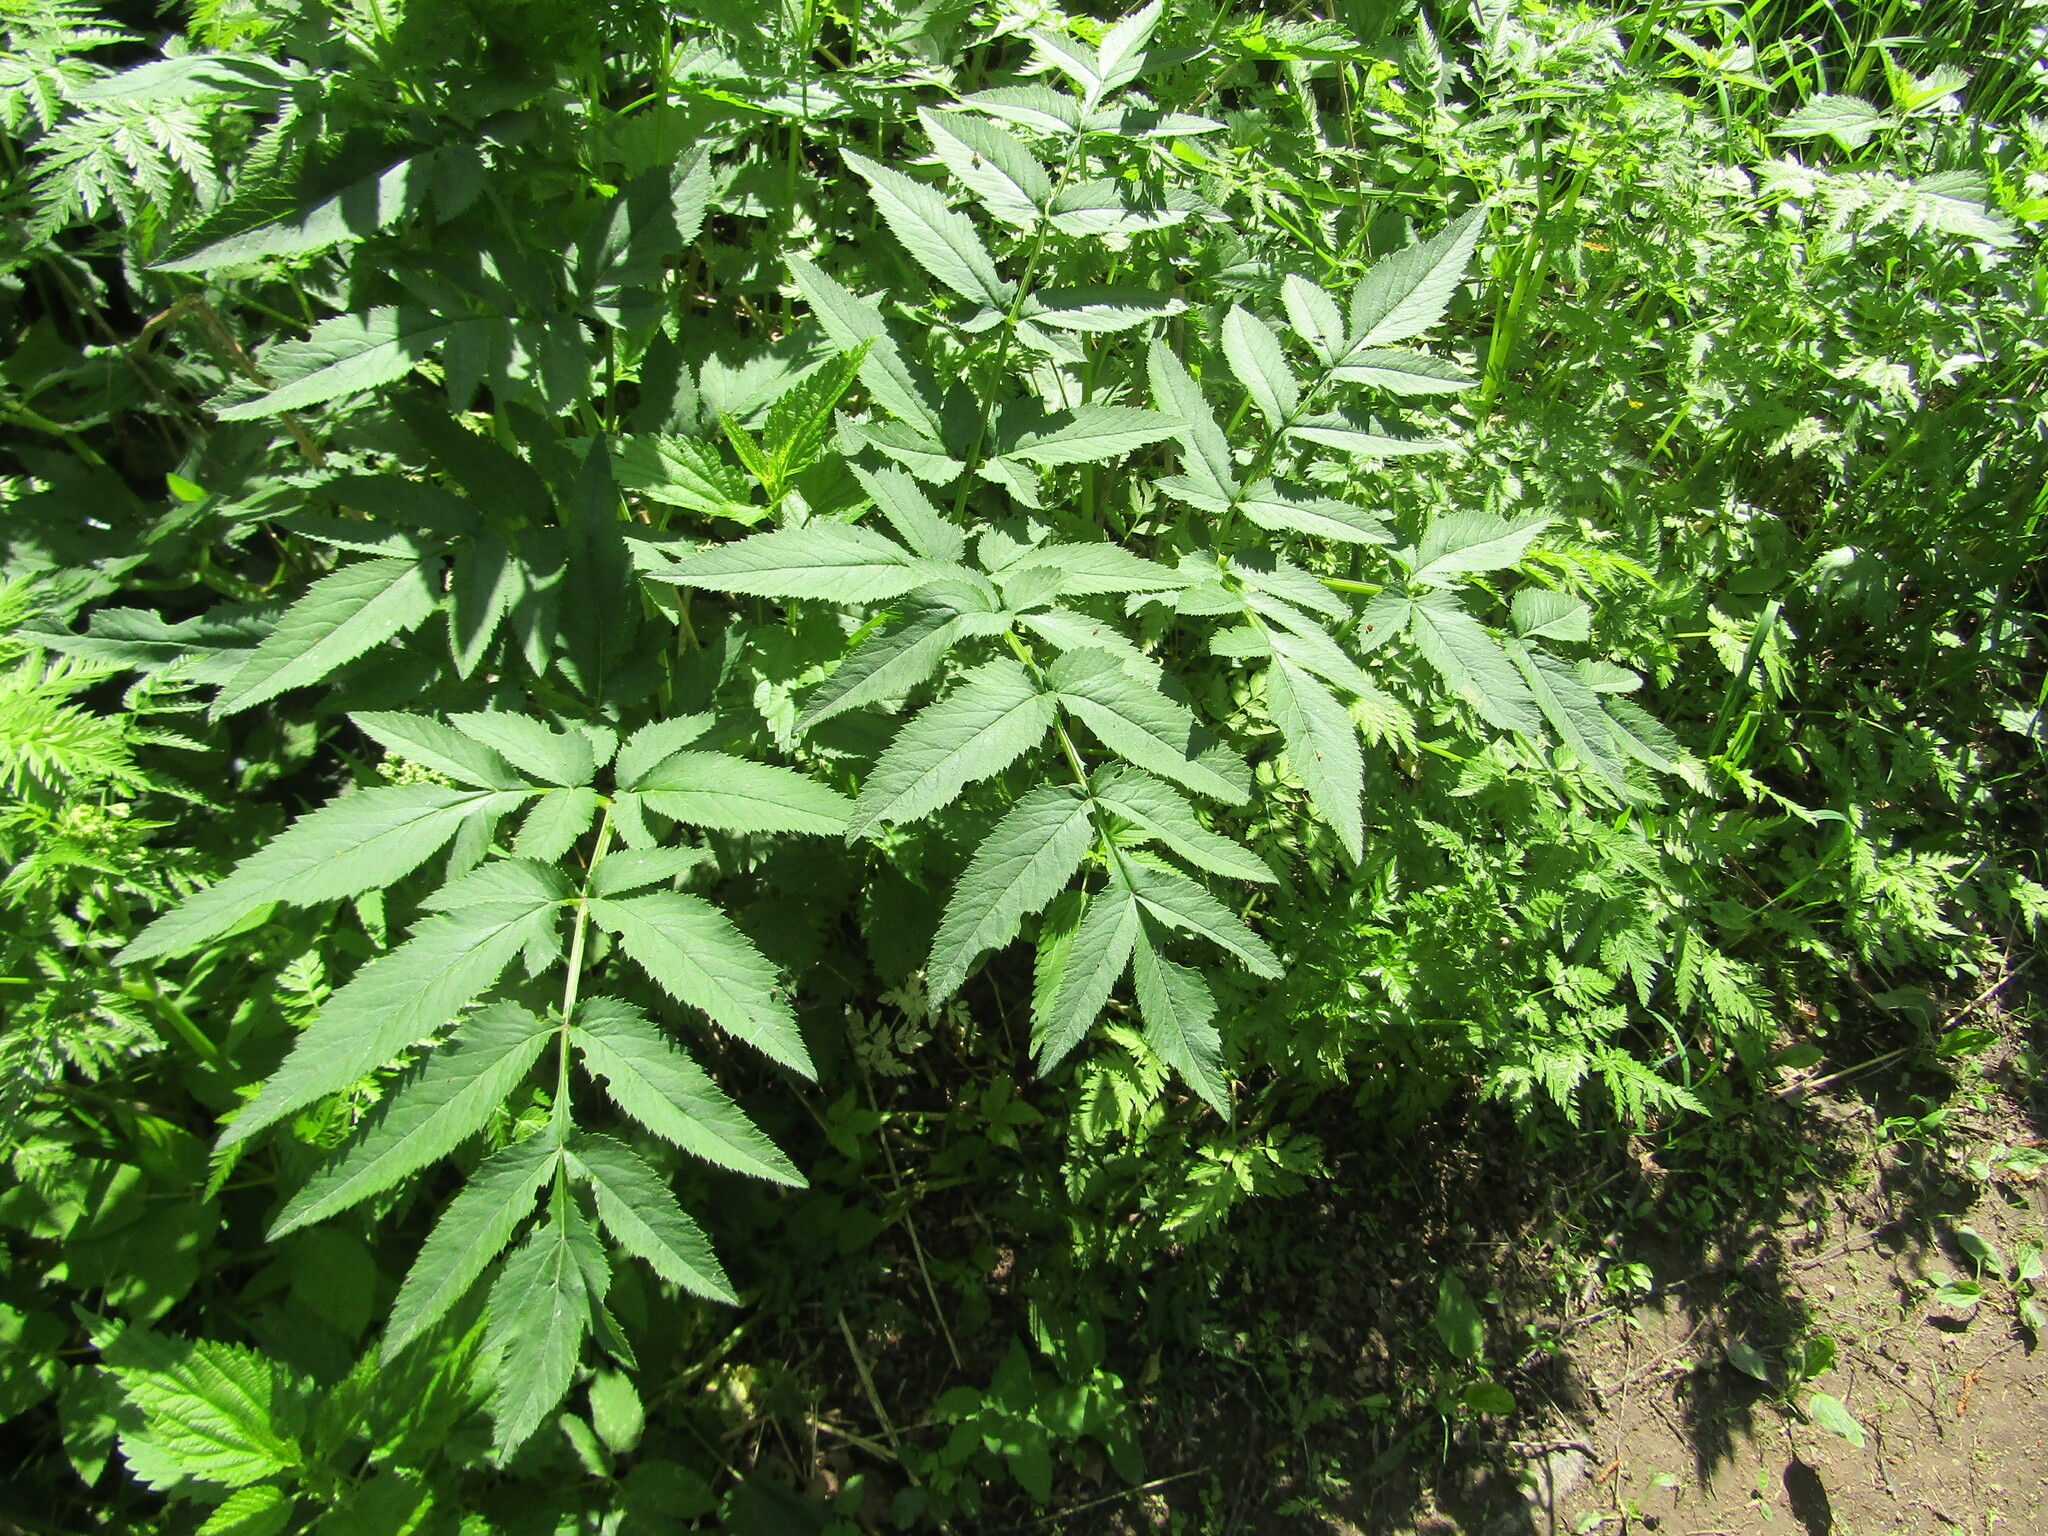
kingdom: Plantae
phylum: Tracheophyta
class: Magnoliopsida
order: Apiales
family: Apiaceae
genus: Angelica
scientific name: Angelica sylvestris
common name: Wild angelica
